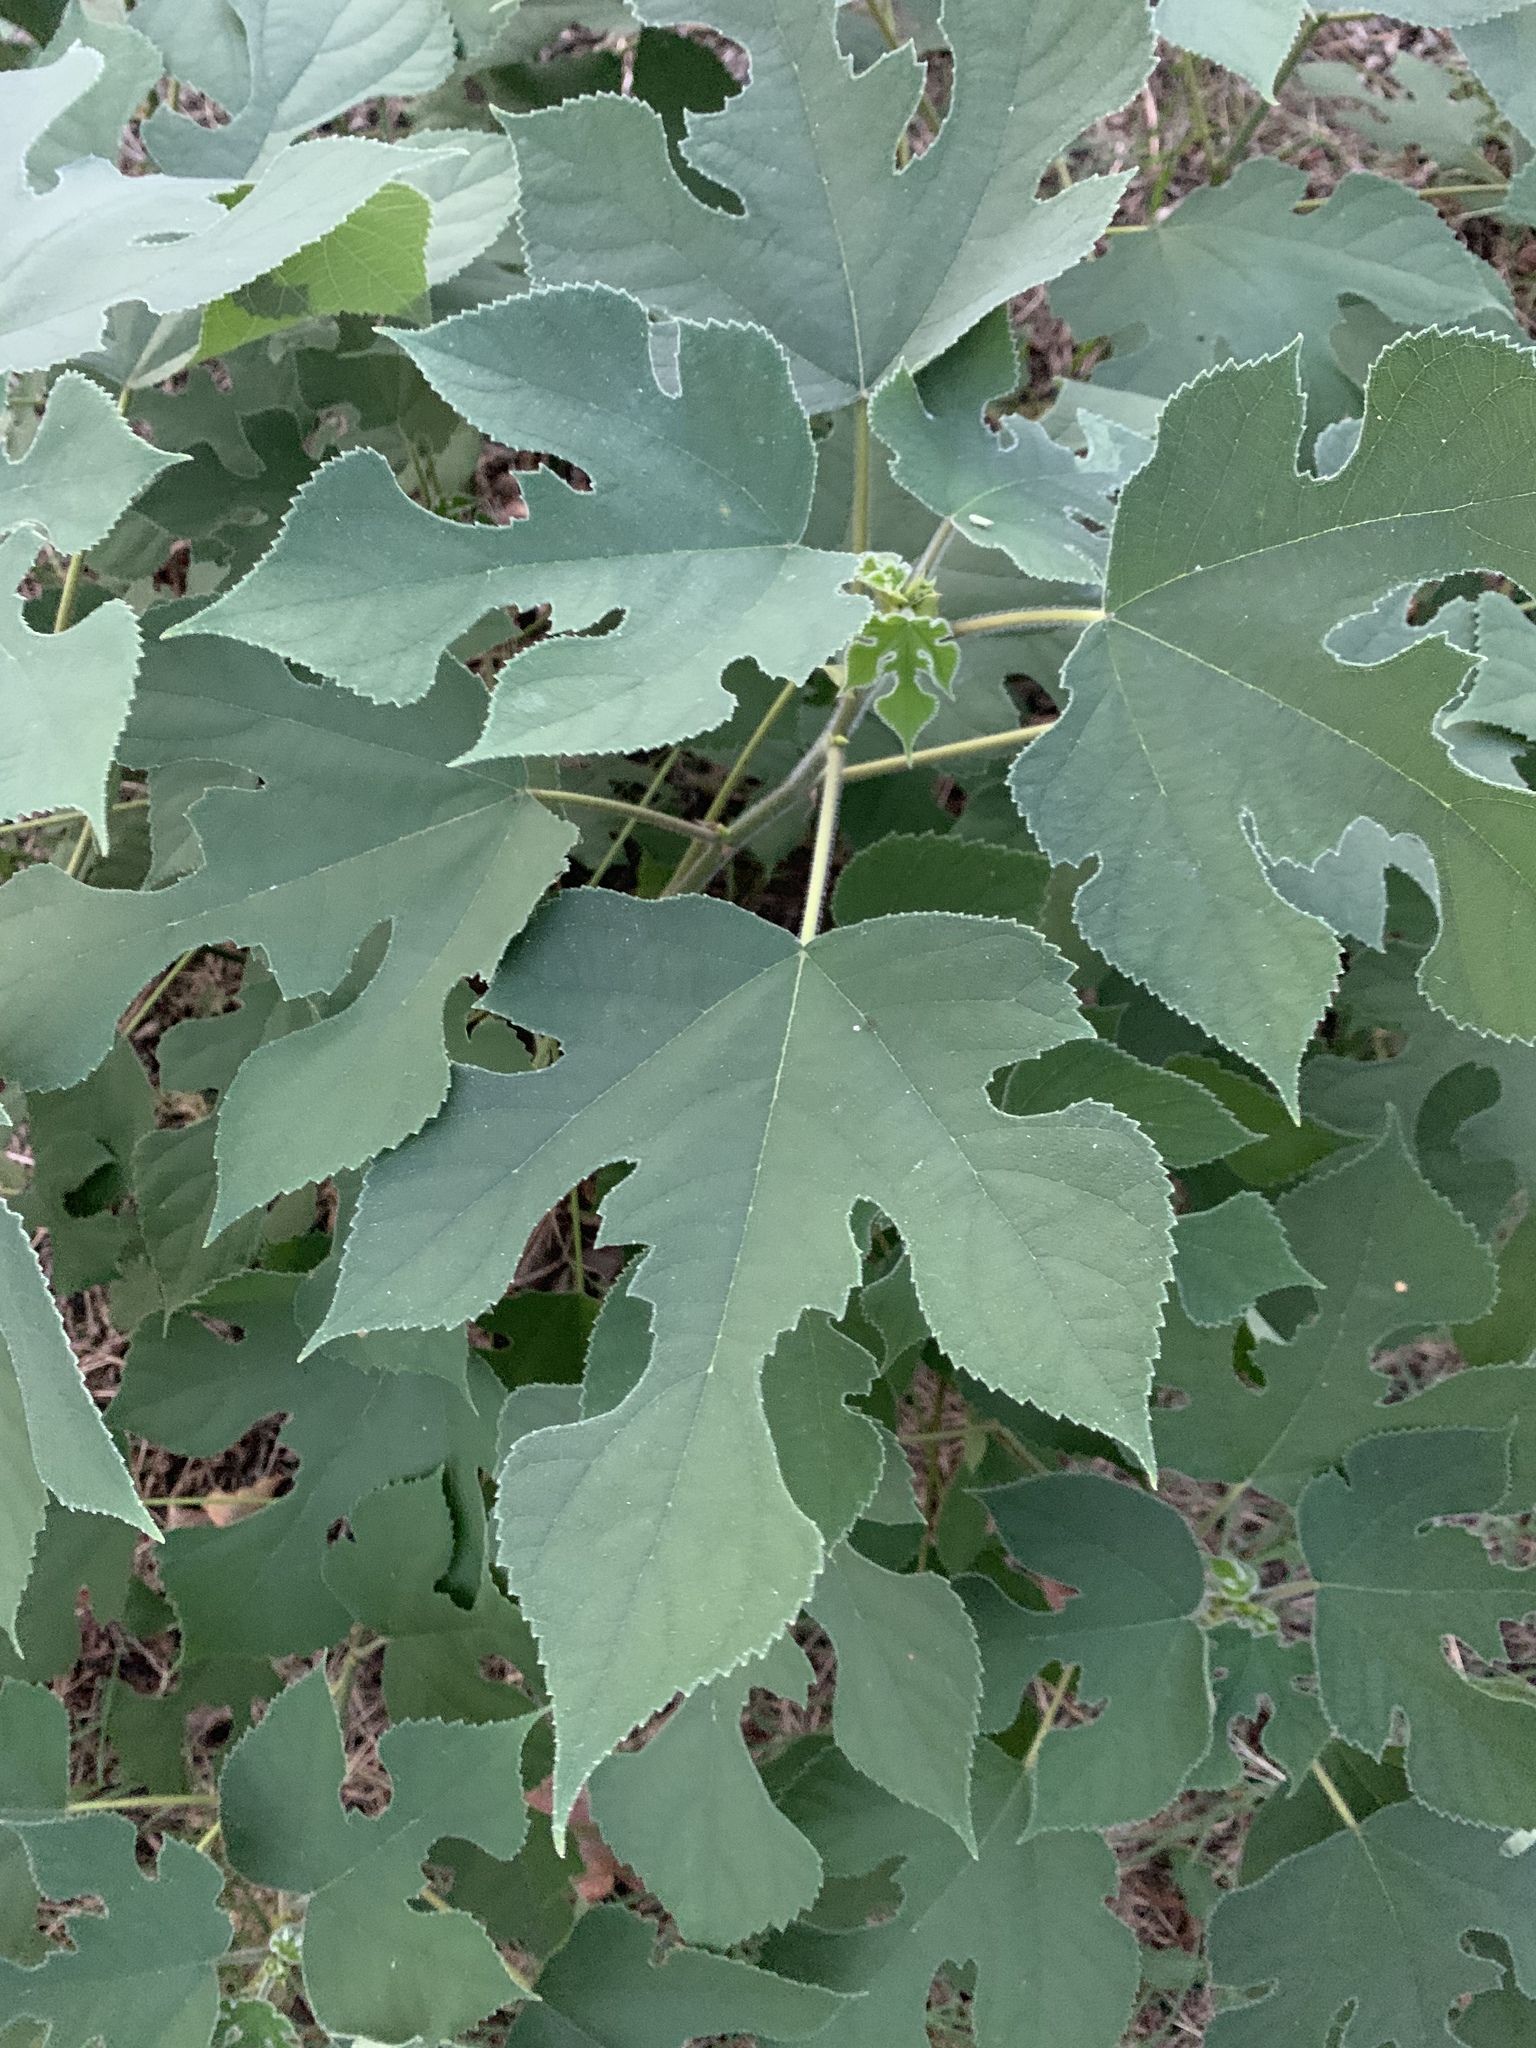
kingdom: Plantae
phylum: Tracheophyta
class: Magnoliopsida
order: Rosales
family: Moraceae
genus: Broussonetia
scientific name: Broussonetia papyrifera
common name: Paper mulberry
